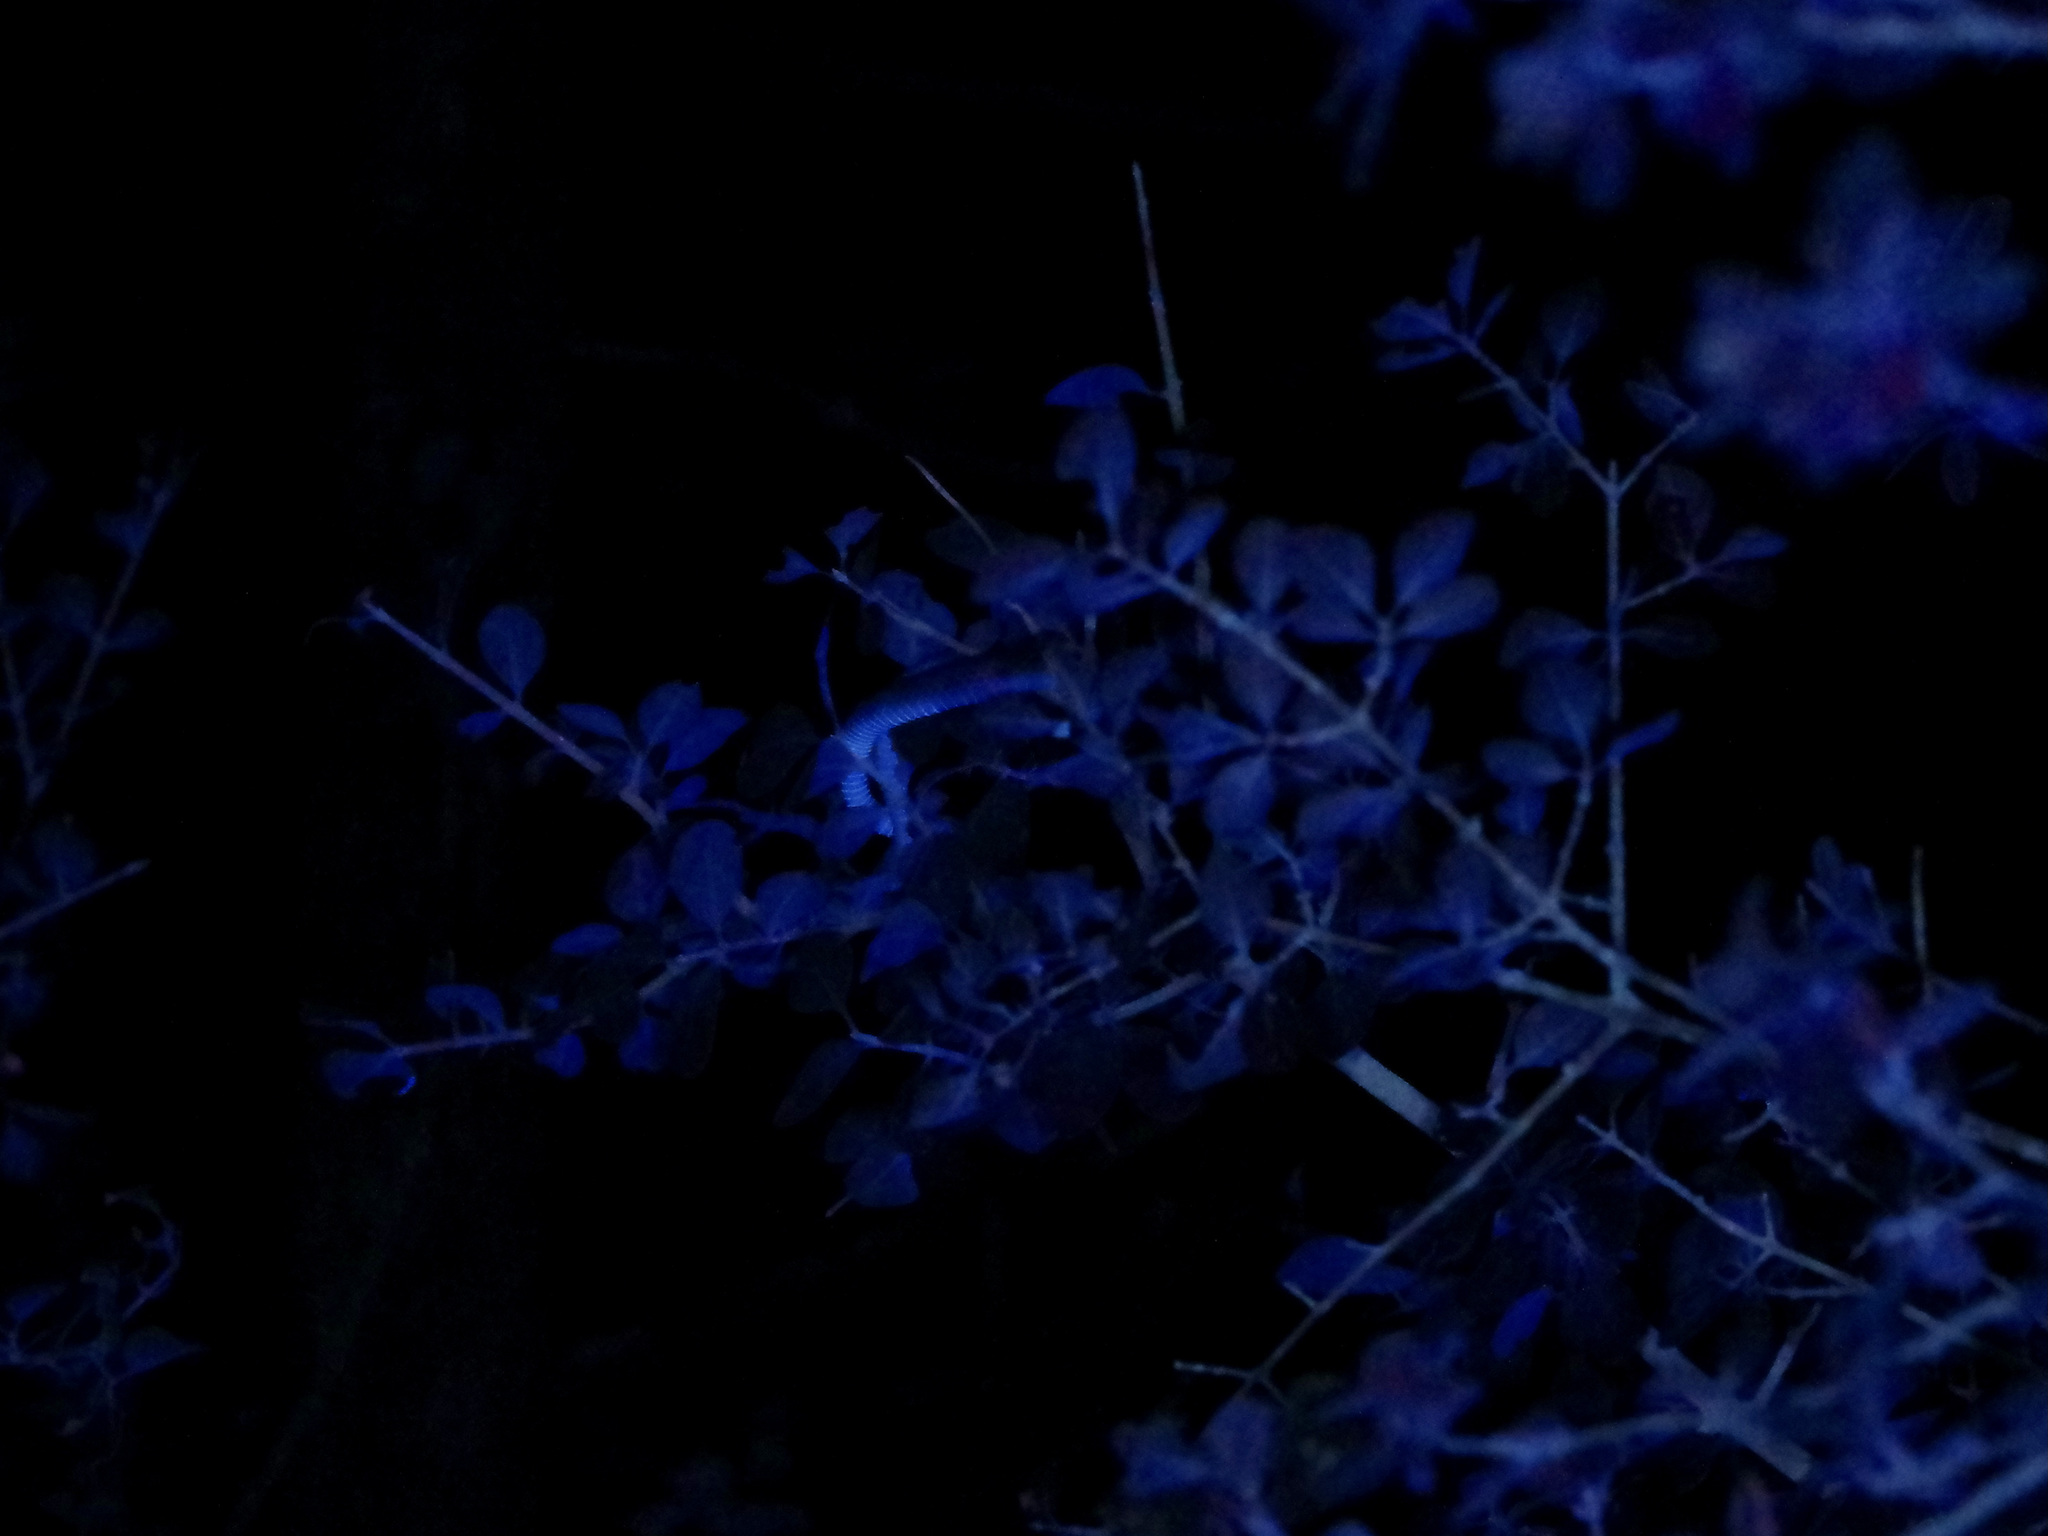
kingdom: Animalia
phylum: Chordata
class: Squamata
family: Colubridae
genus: Opheodrys
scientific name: Opheodrys aestivus
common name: Rough greensnake
